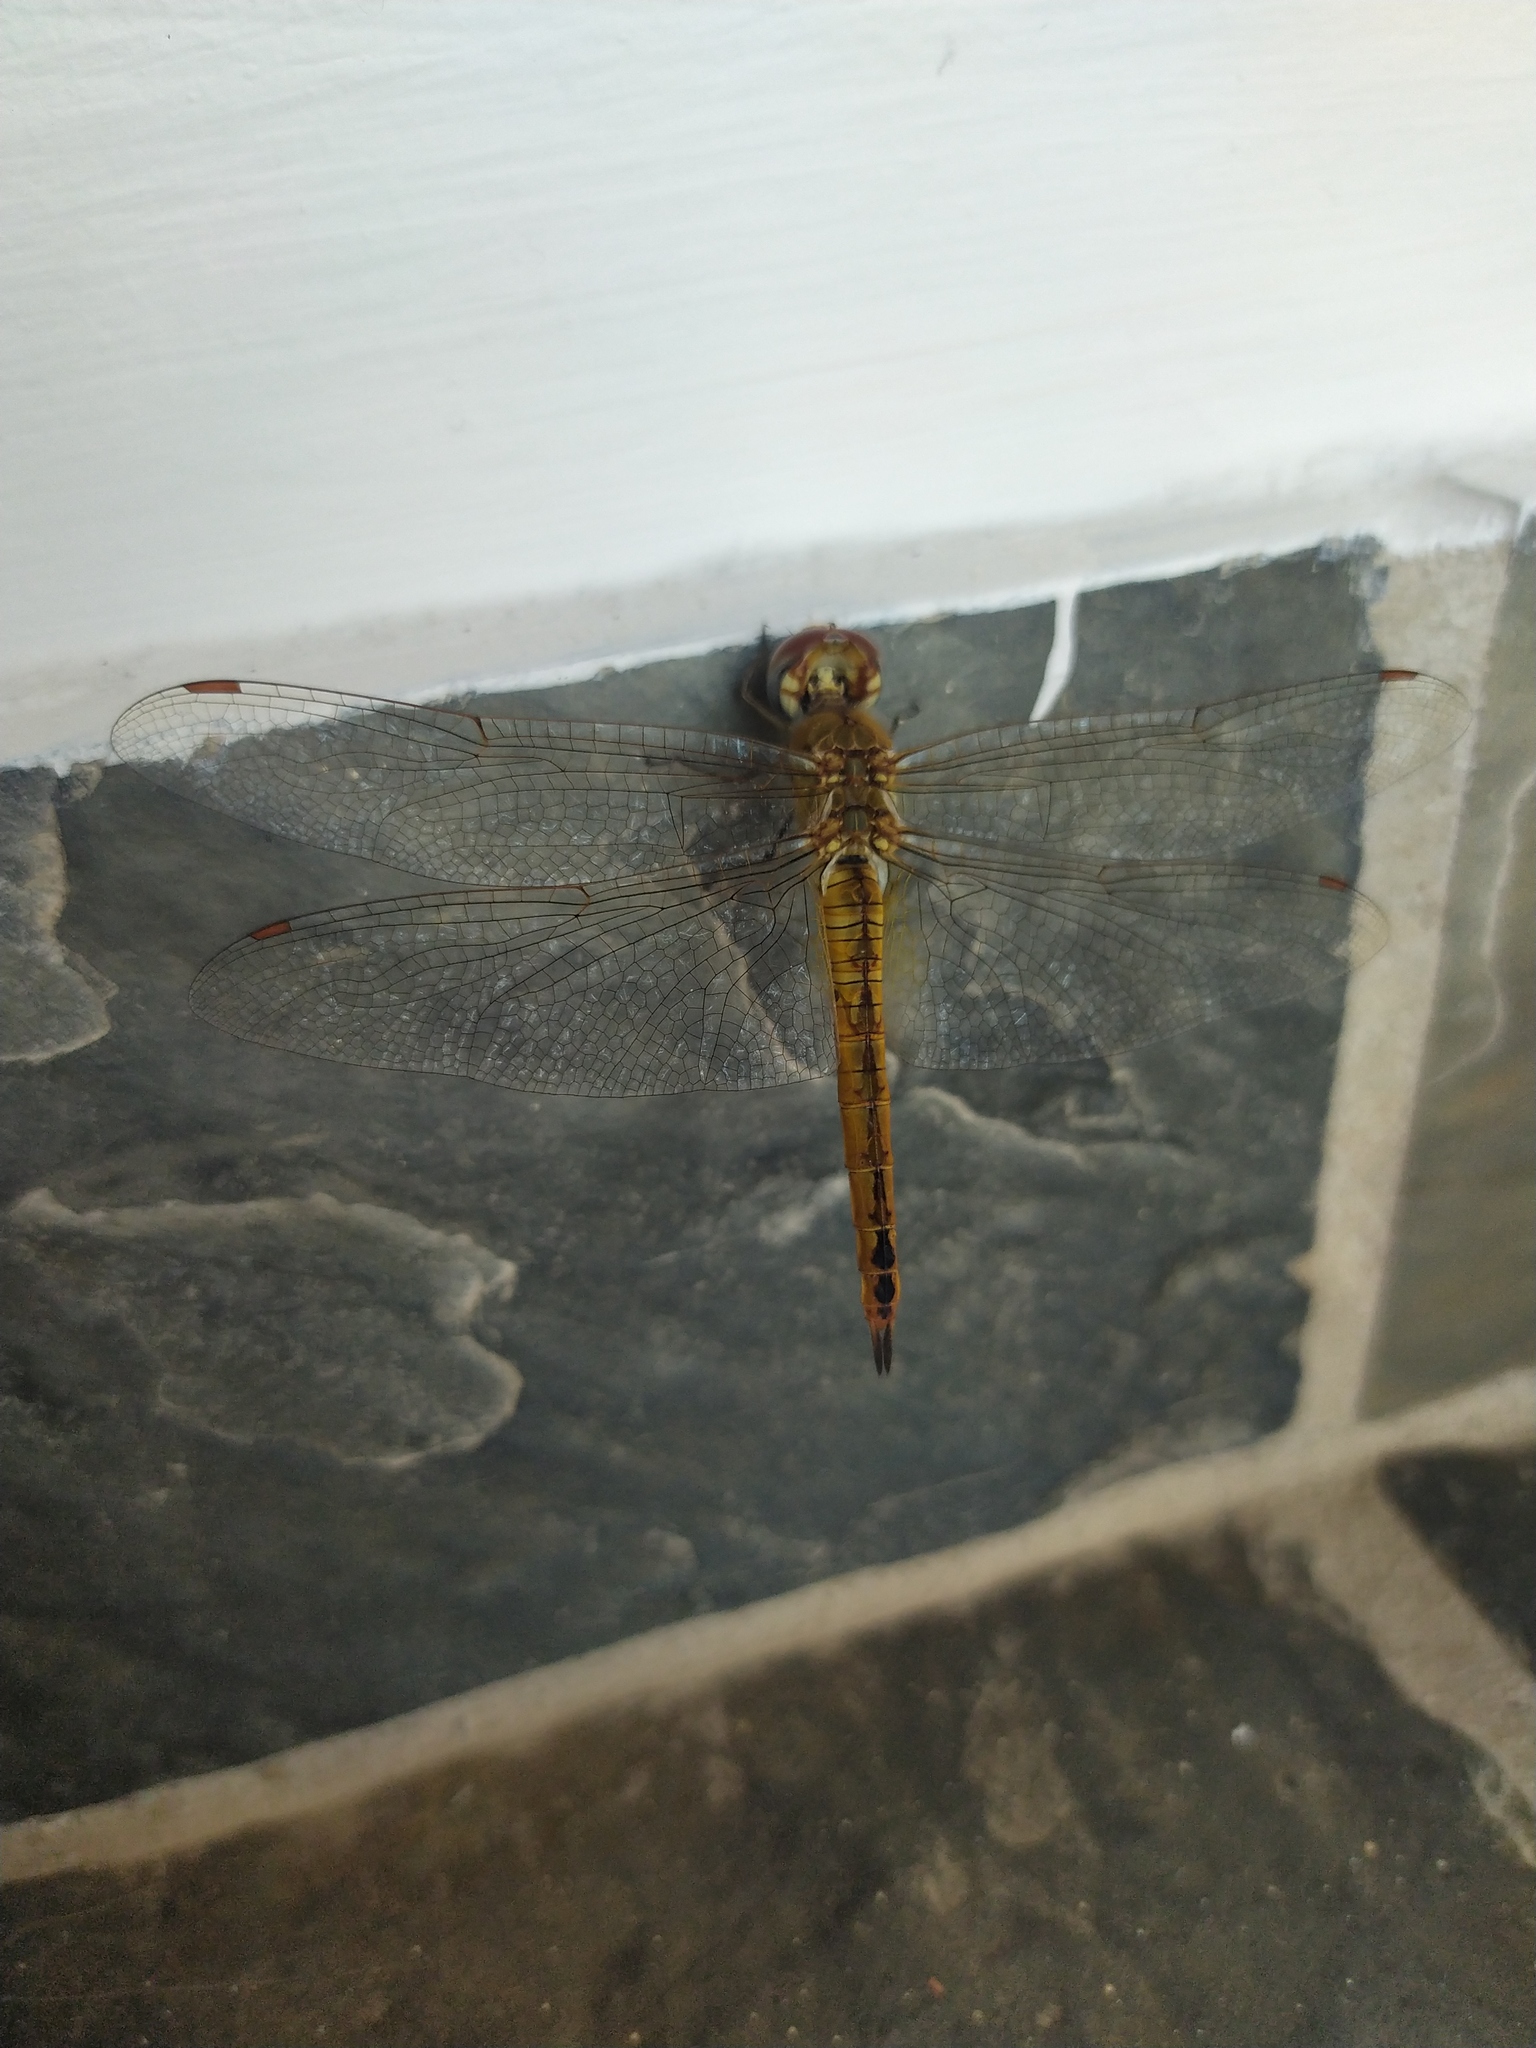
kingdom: Animalia
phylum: Arthropoda
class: Insecta
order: Odonata
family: Libellulidae
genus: Pantala
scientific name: Pantala flavescens
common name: Wandering glider
